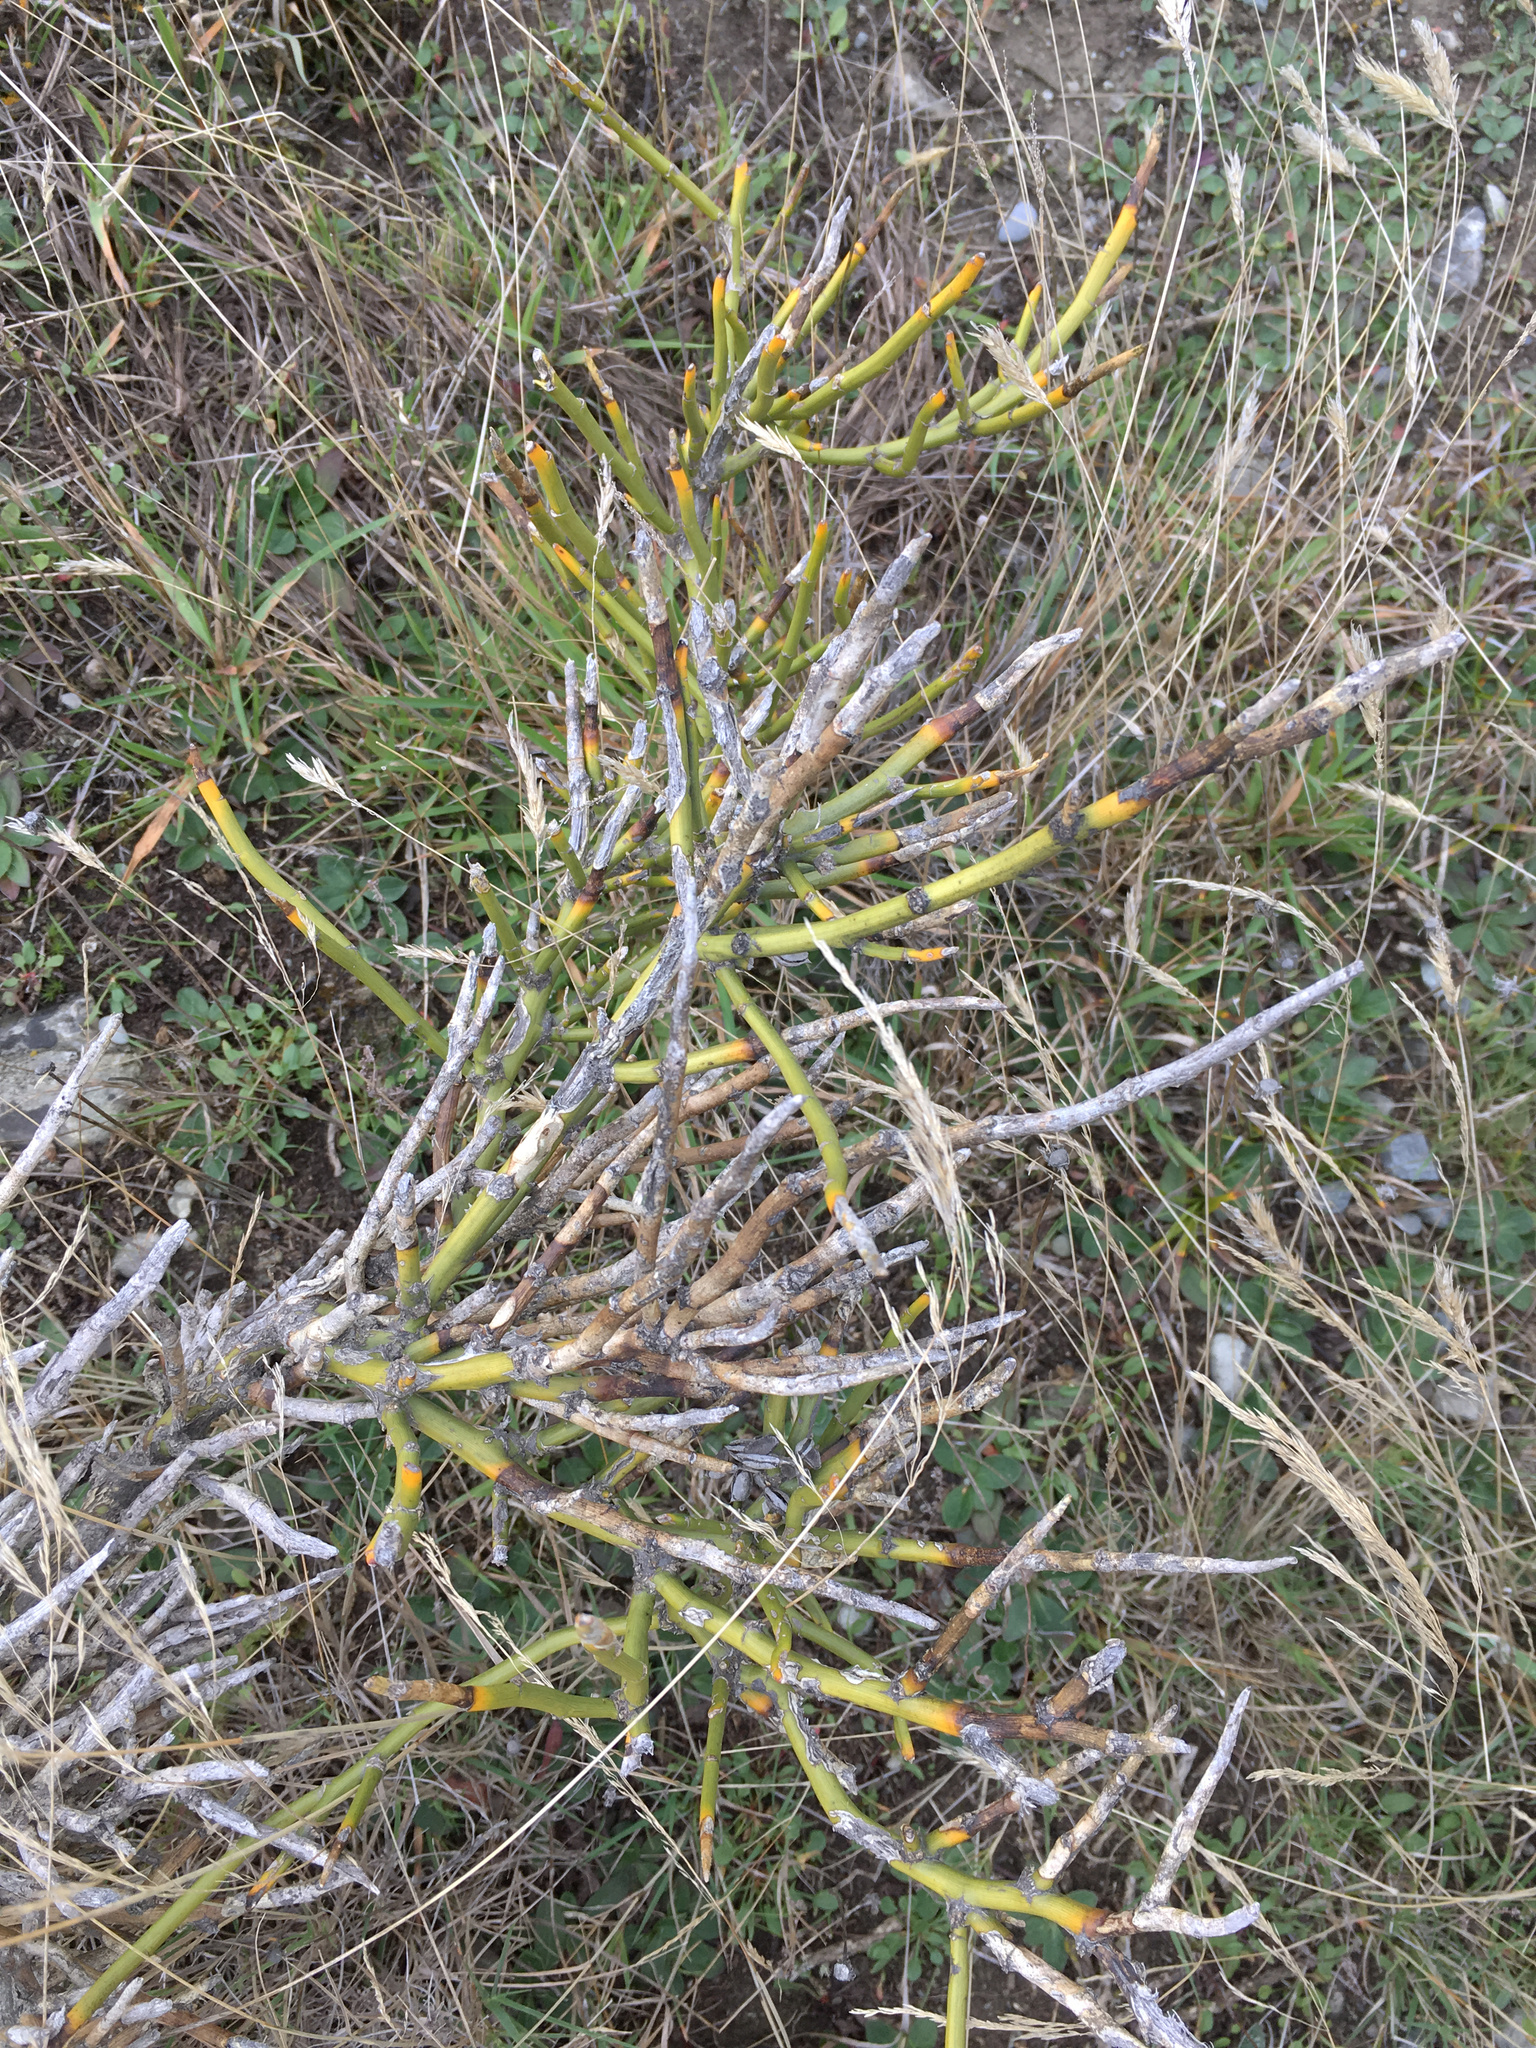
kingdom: Plantae
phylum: Tracheophyta
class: Magnoliopsida
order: Fabales
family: Fabaceae
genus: Carmichaelia
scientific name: Carmichaelia petriei
